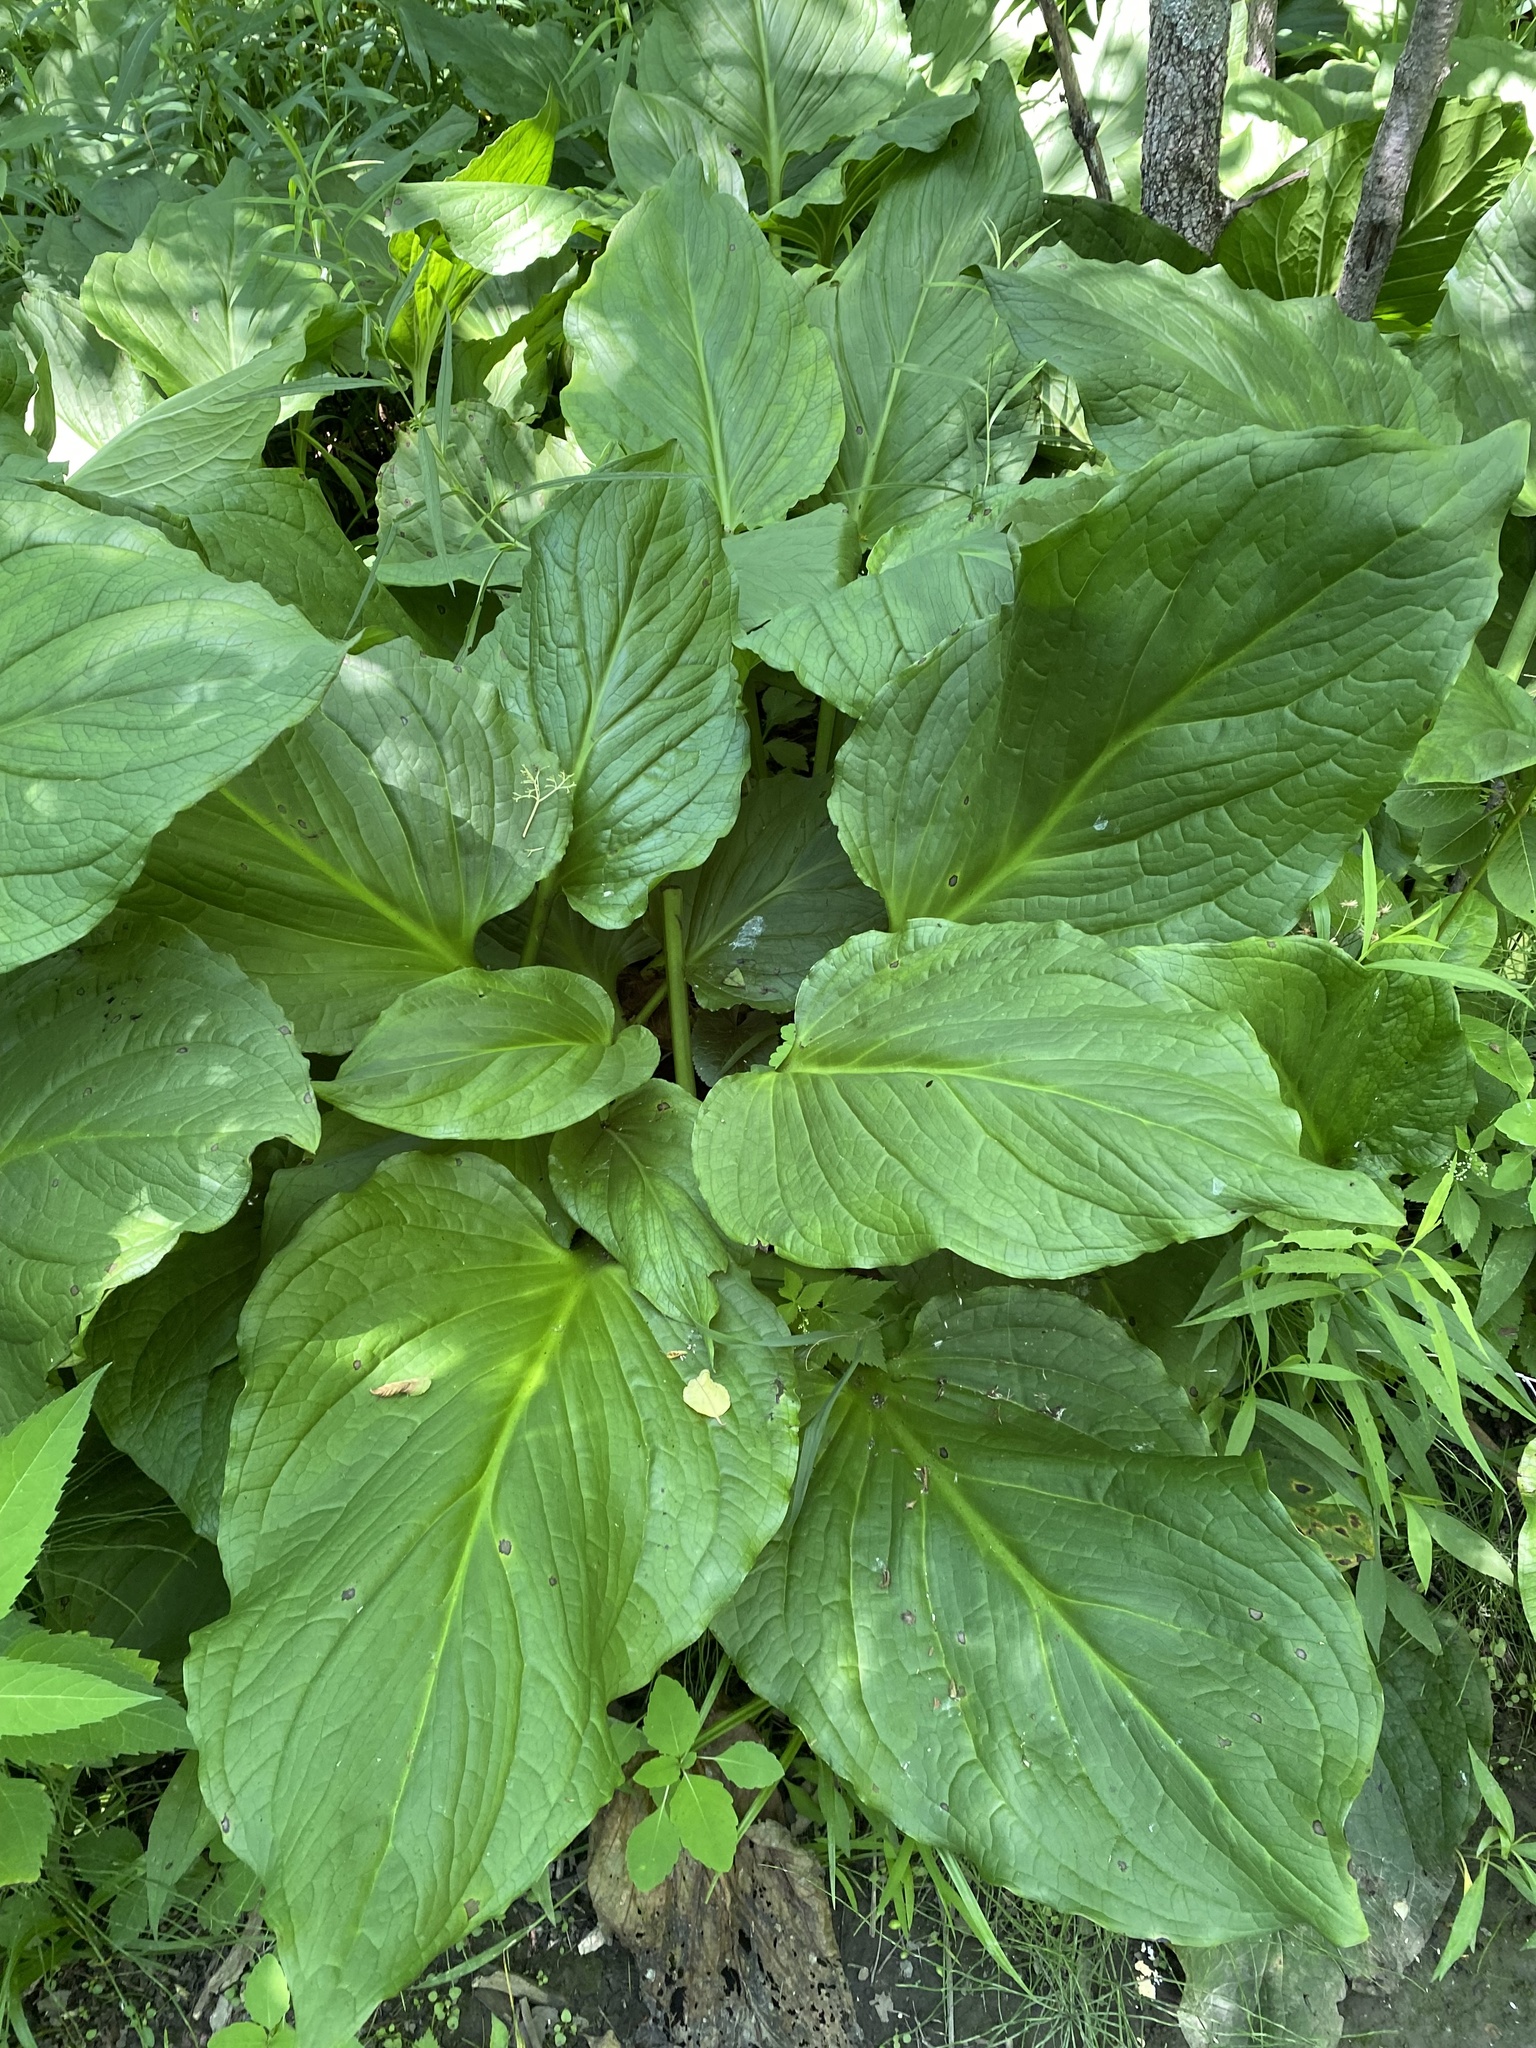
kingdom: Plantae
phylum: Tracheophyta
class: Liliopsida
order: Alismatales
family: Araceae
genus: Symplocarpus
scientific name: Symplocarpus foetidus
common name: Eastern skunk cabbage
